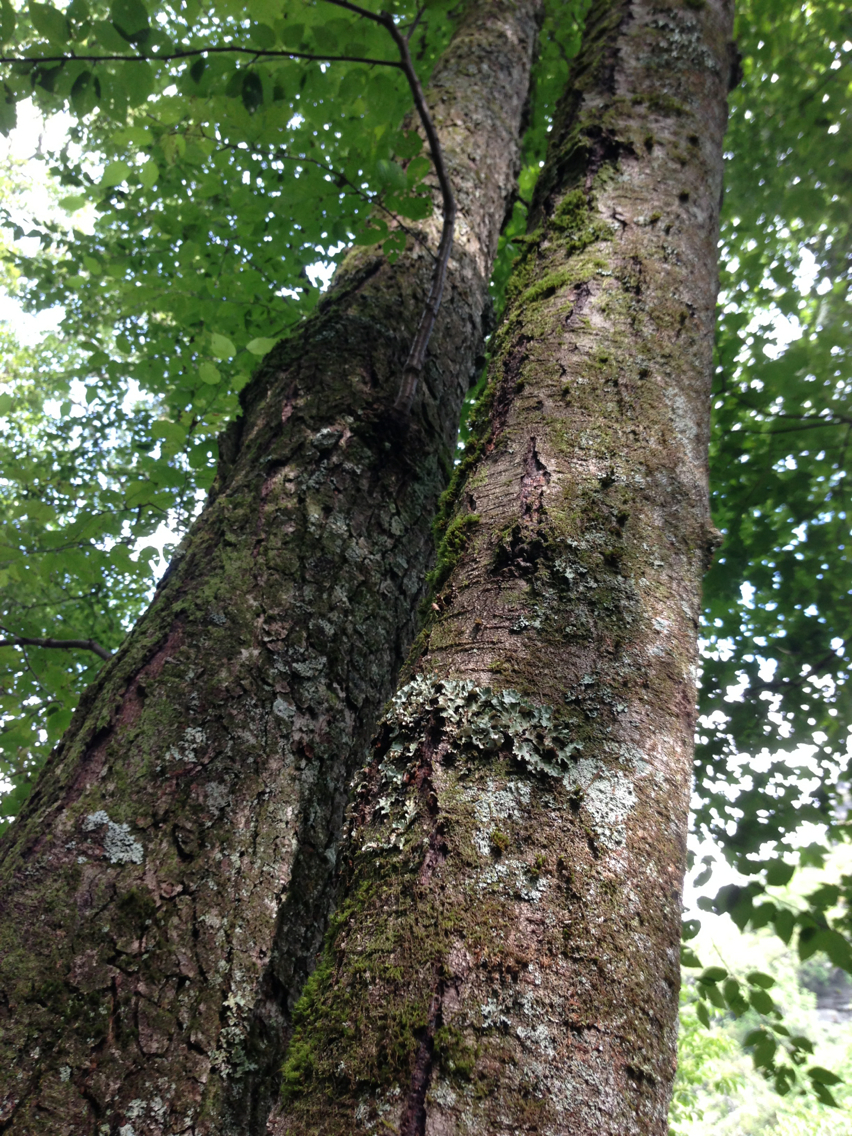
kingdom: Plantae
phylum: Tracheophyta
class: Magnoliopsida
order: Fagales
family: Betulaceae
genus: Betula
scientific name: Betula lenta
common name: Black birch
